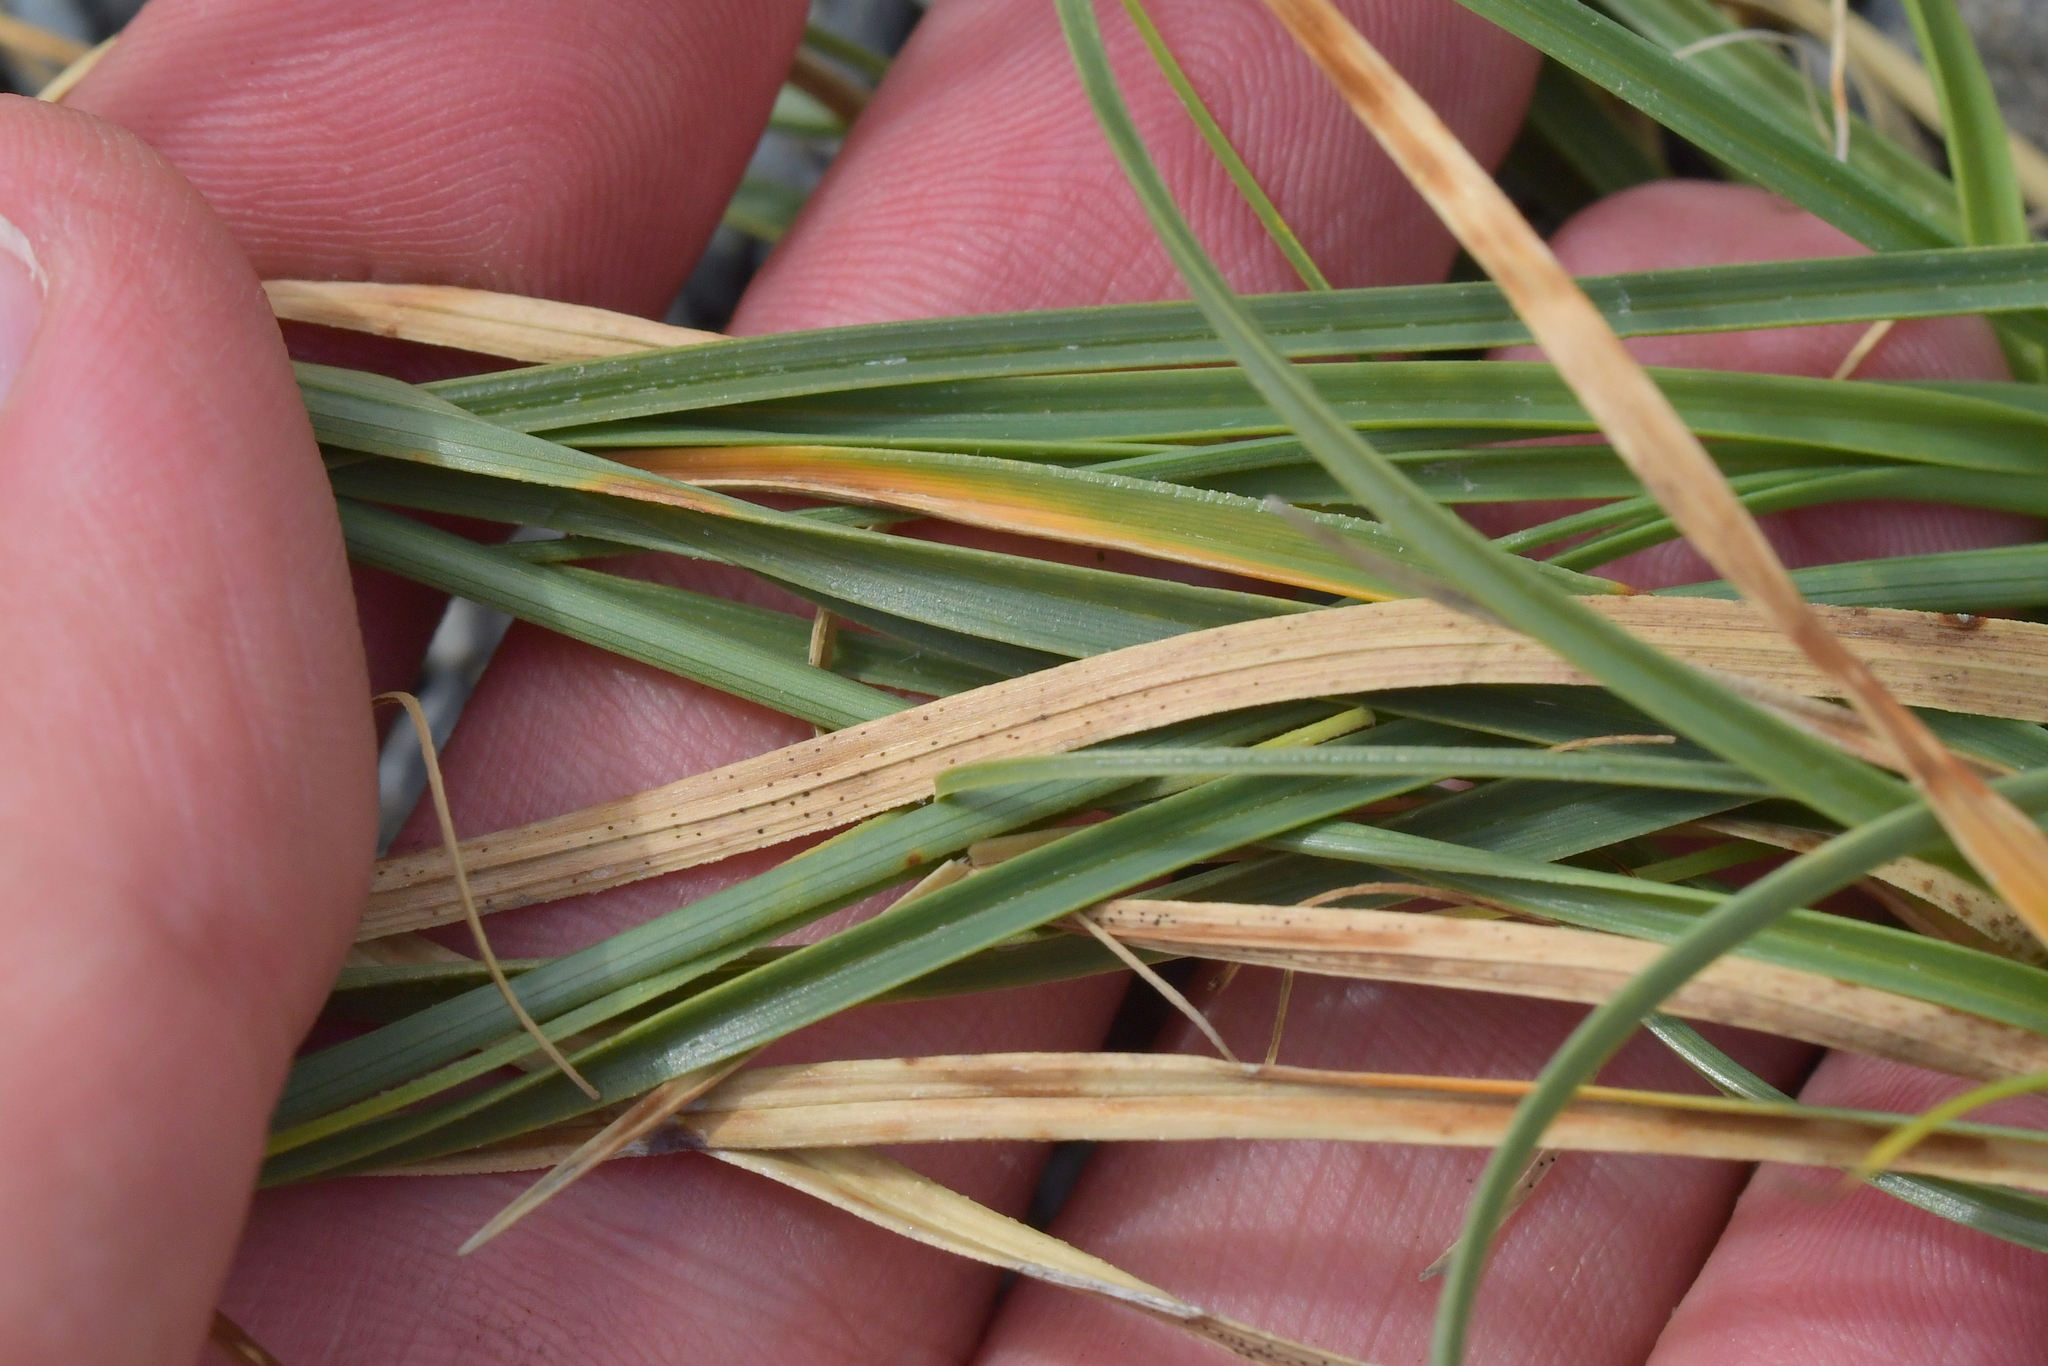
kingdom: Plantae
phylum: Tracheophyta
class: Liliopsida
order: Poales
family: Cyperaceae
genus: Carex
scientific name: Carex pumila
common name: Dwarf sedge
